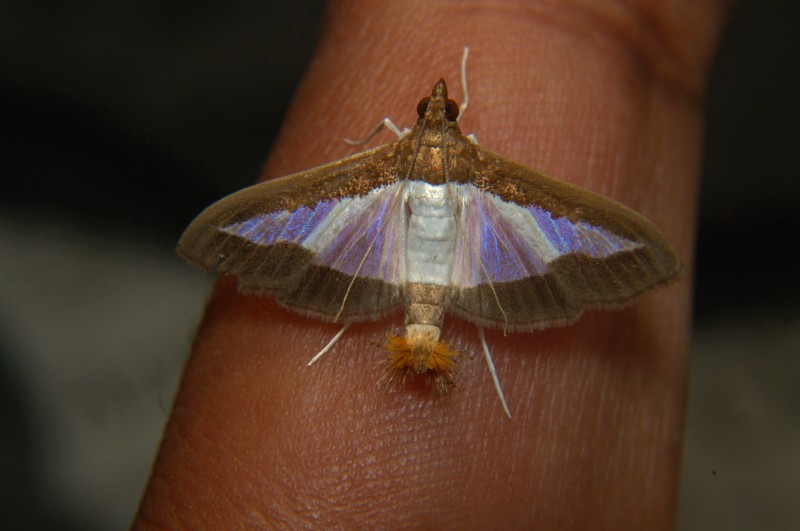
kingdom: Animalia
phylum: Arthropoda
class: Insecta
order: Lepidoptera
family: Crambidae
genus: Diaphania
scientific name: Diaphania indica
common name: Cucumber moth
